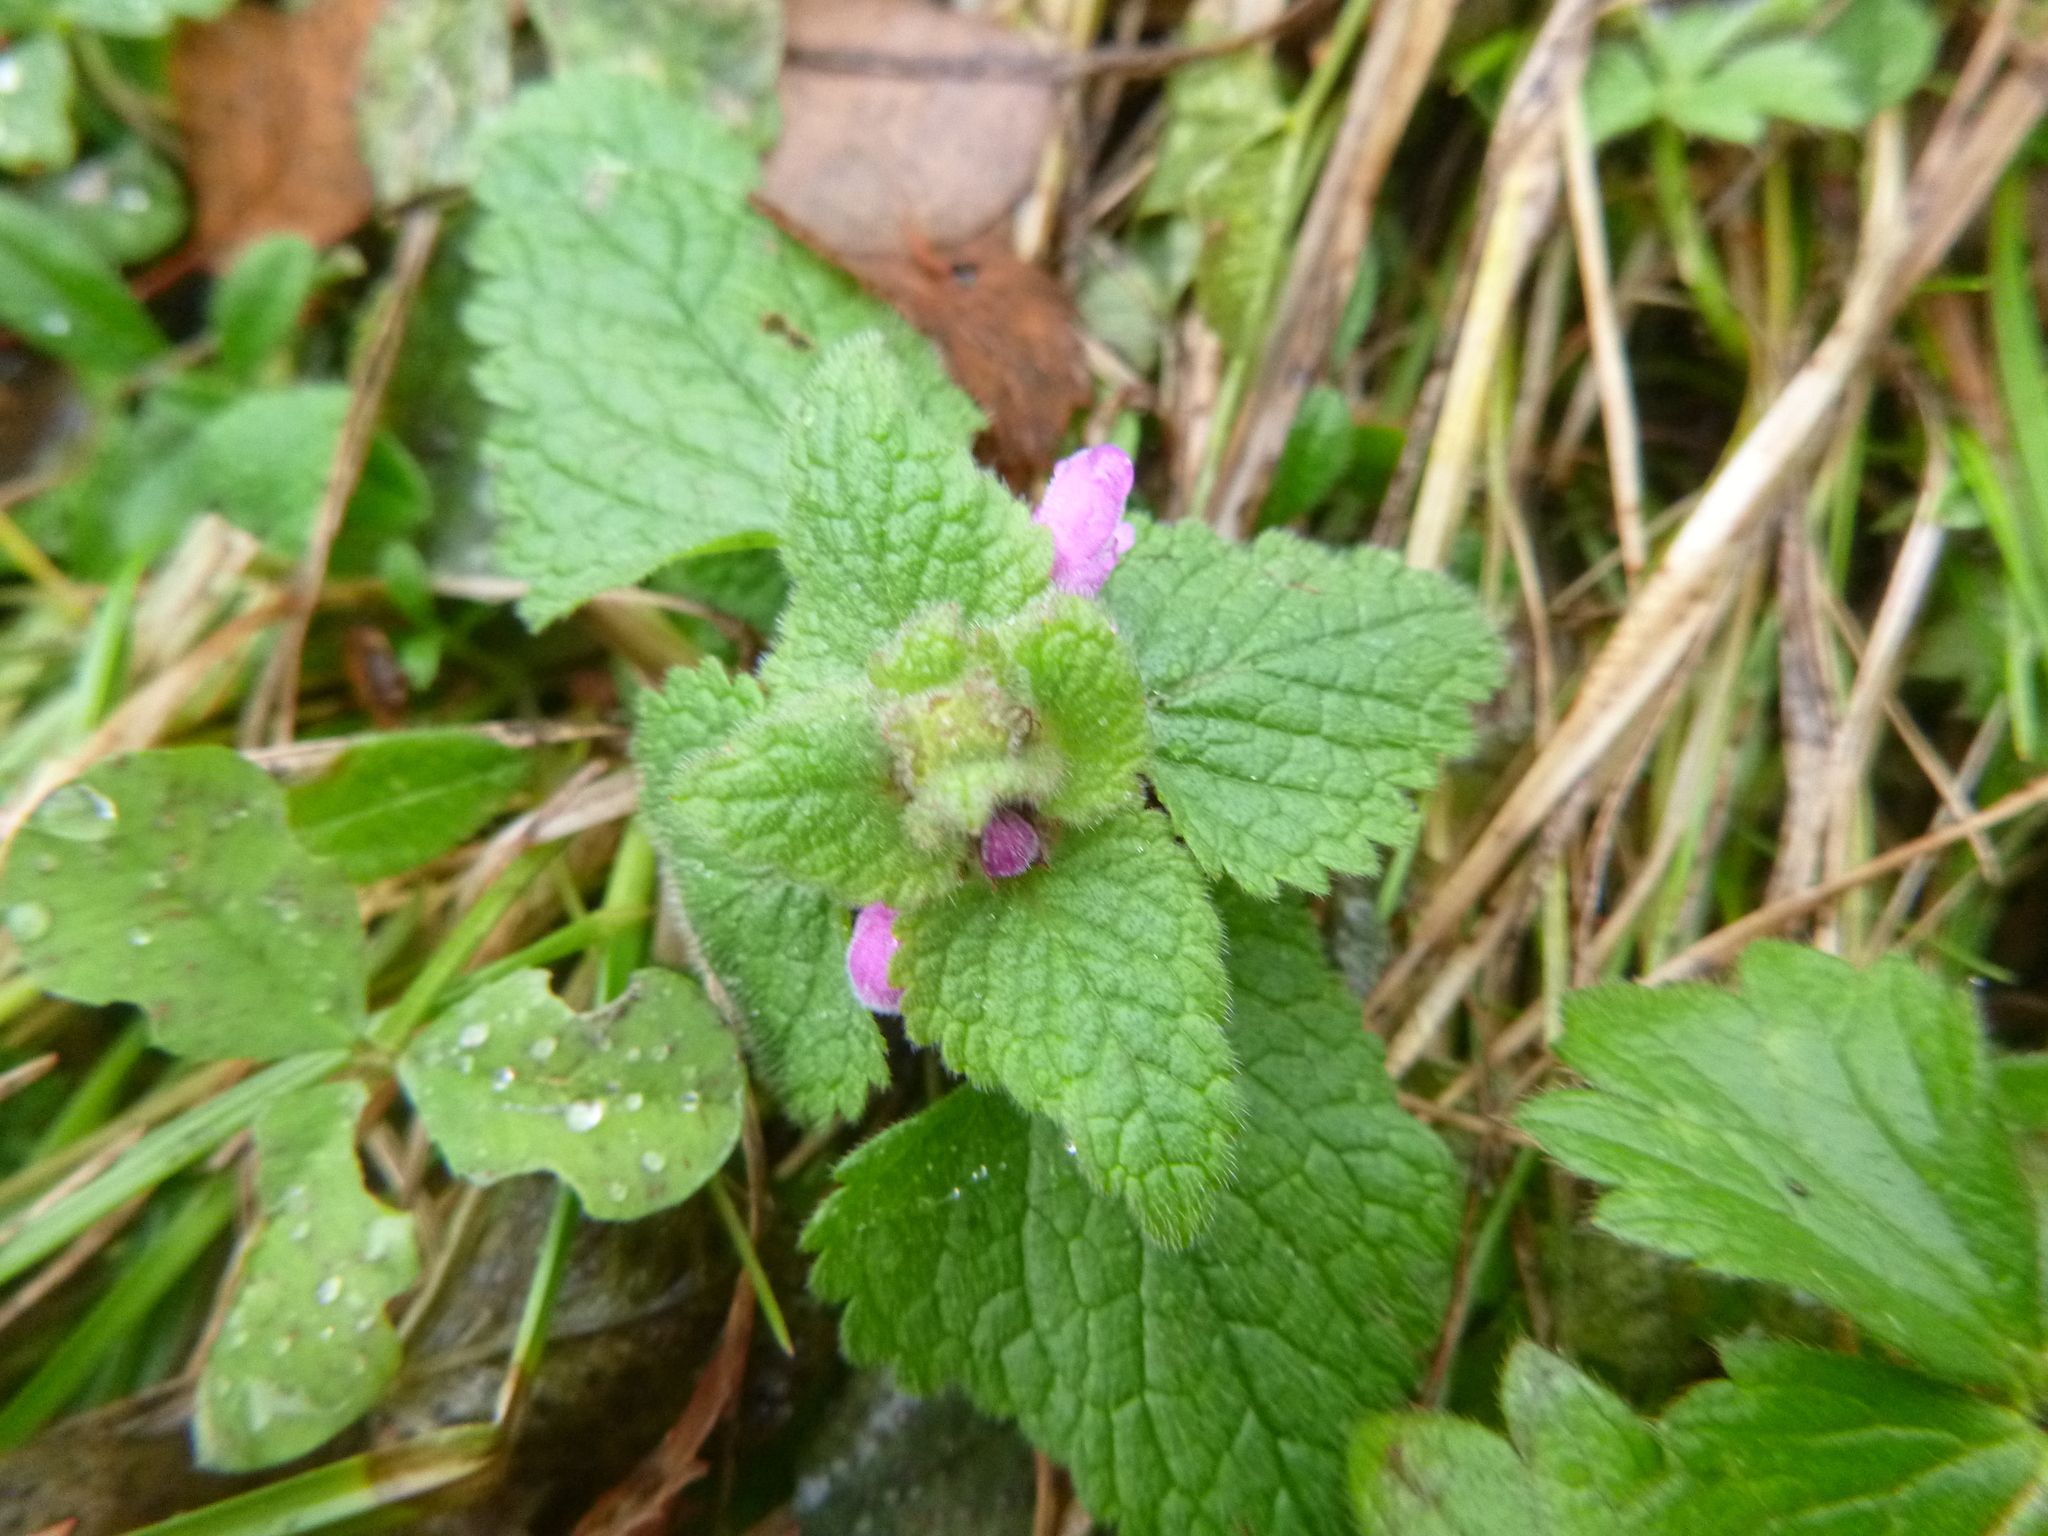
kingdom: Plantae
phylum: Tracheophyta
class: Magnoliopsida
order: Lamiales
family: Lamiaceae
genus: Lamium
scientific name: Lamium purpureum
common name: Red dead-nettle
